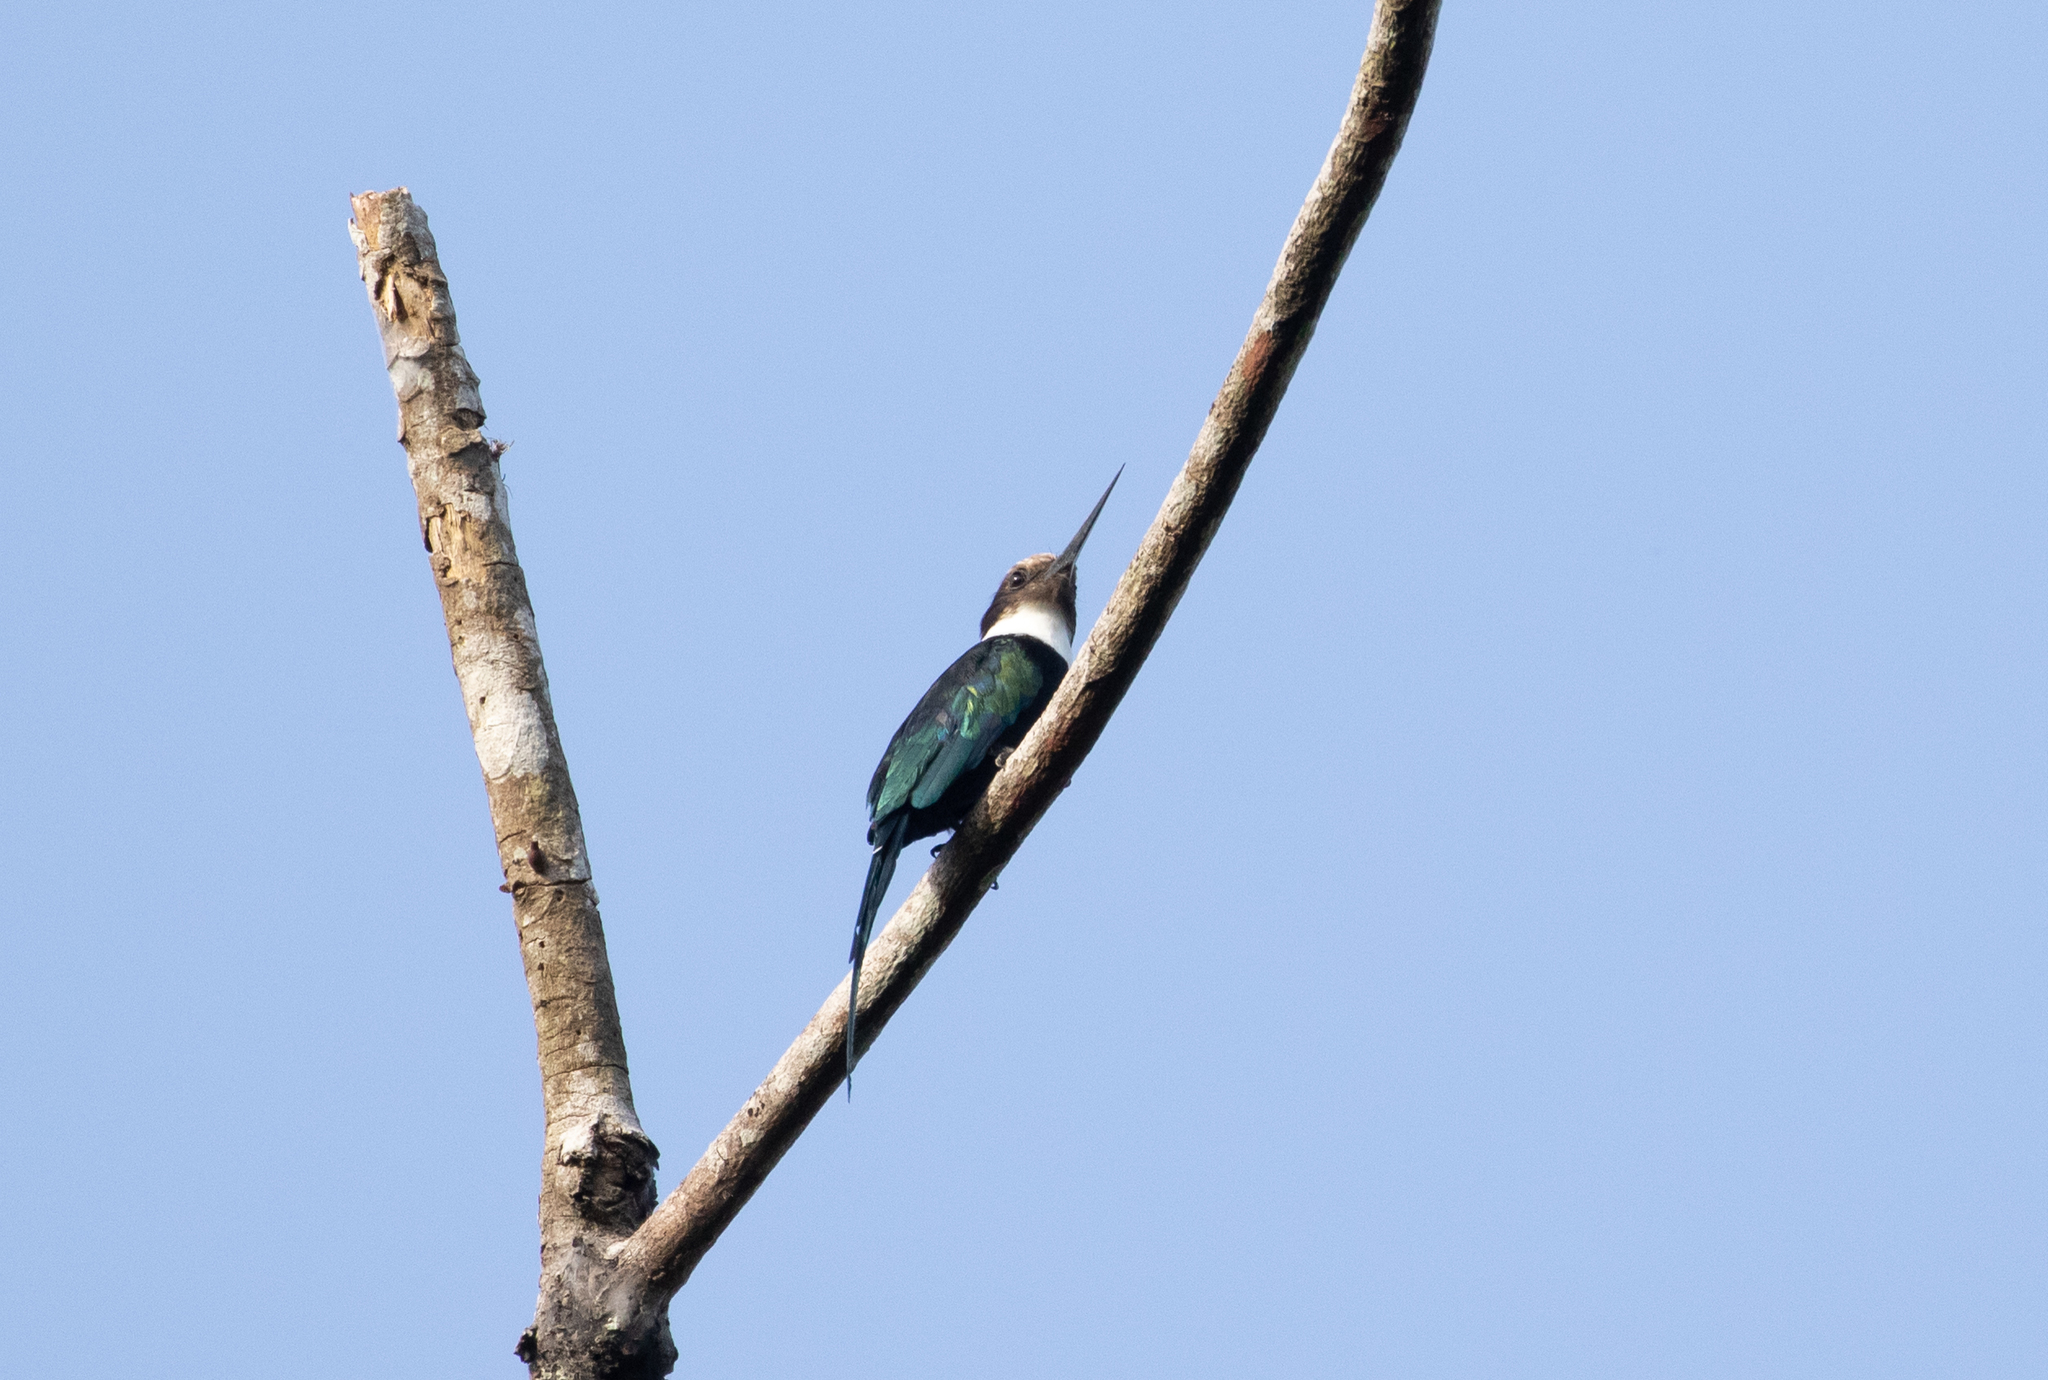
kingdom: Animalia
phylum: Chordata
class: Aves
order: Piciformes
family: Galbulidae
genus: Galbula
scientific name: Galbula dea
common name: Paradise jacamar
